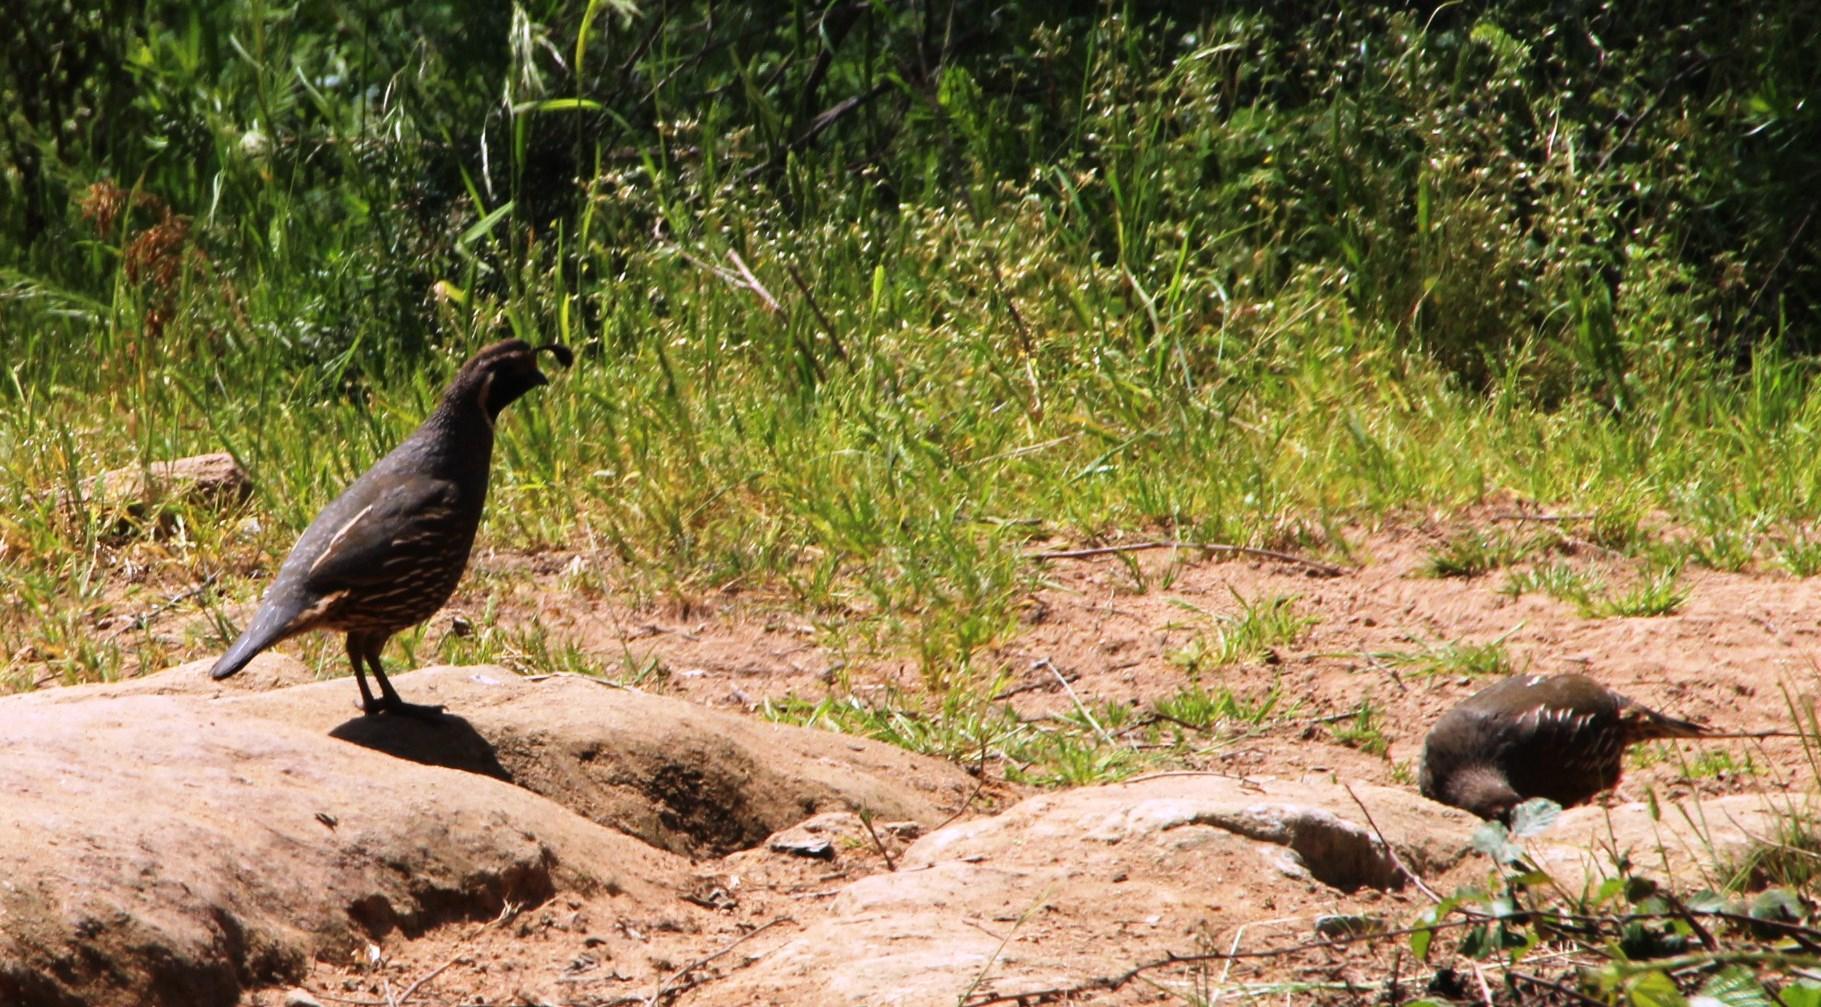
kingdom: Animalia
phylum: Chordata
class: Aves
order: Galliformes
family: Odontophoridae
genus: Callipepla
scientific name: Callipepla californica
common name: California quail
